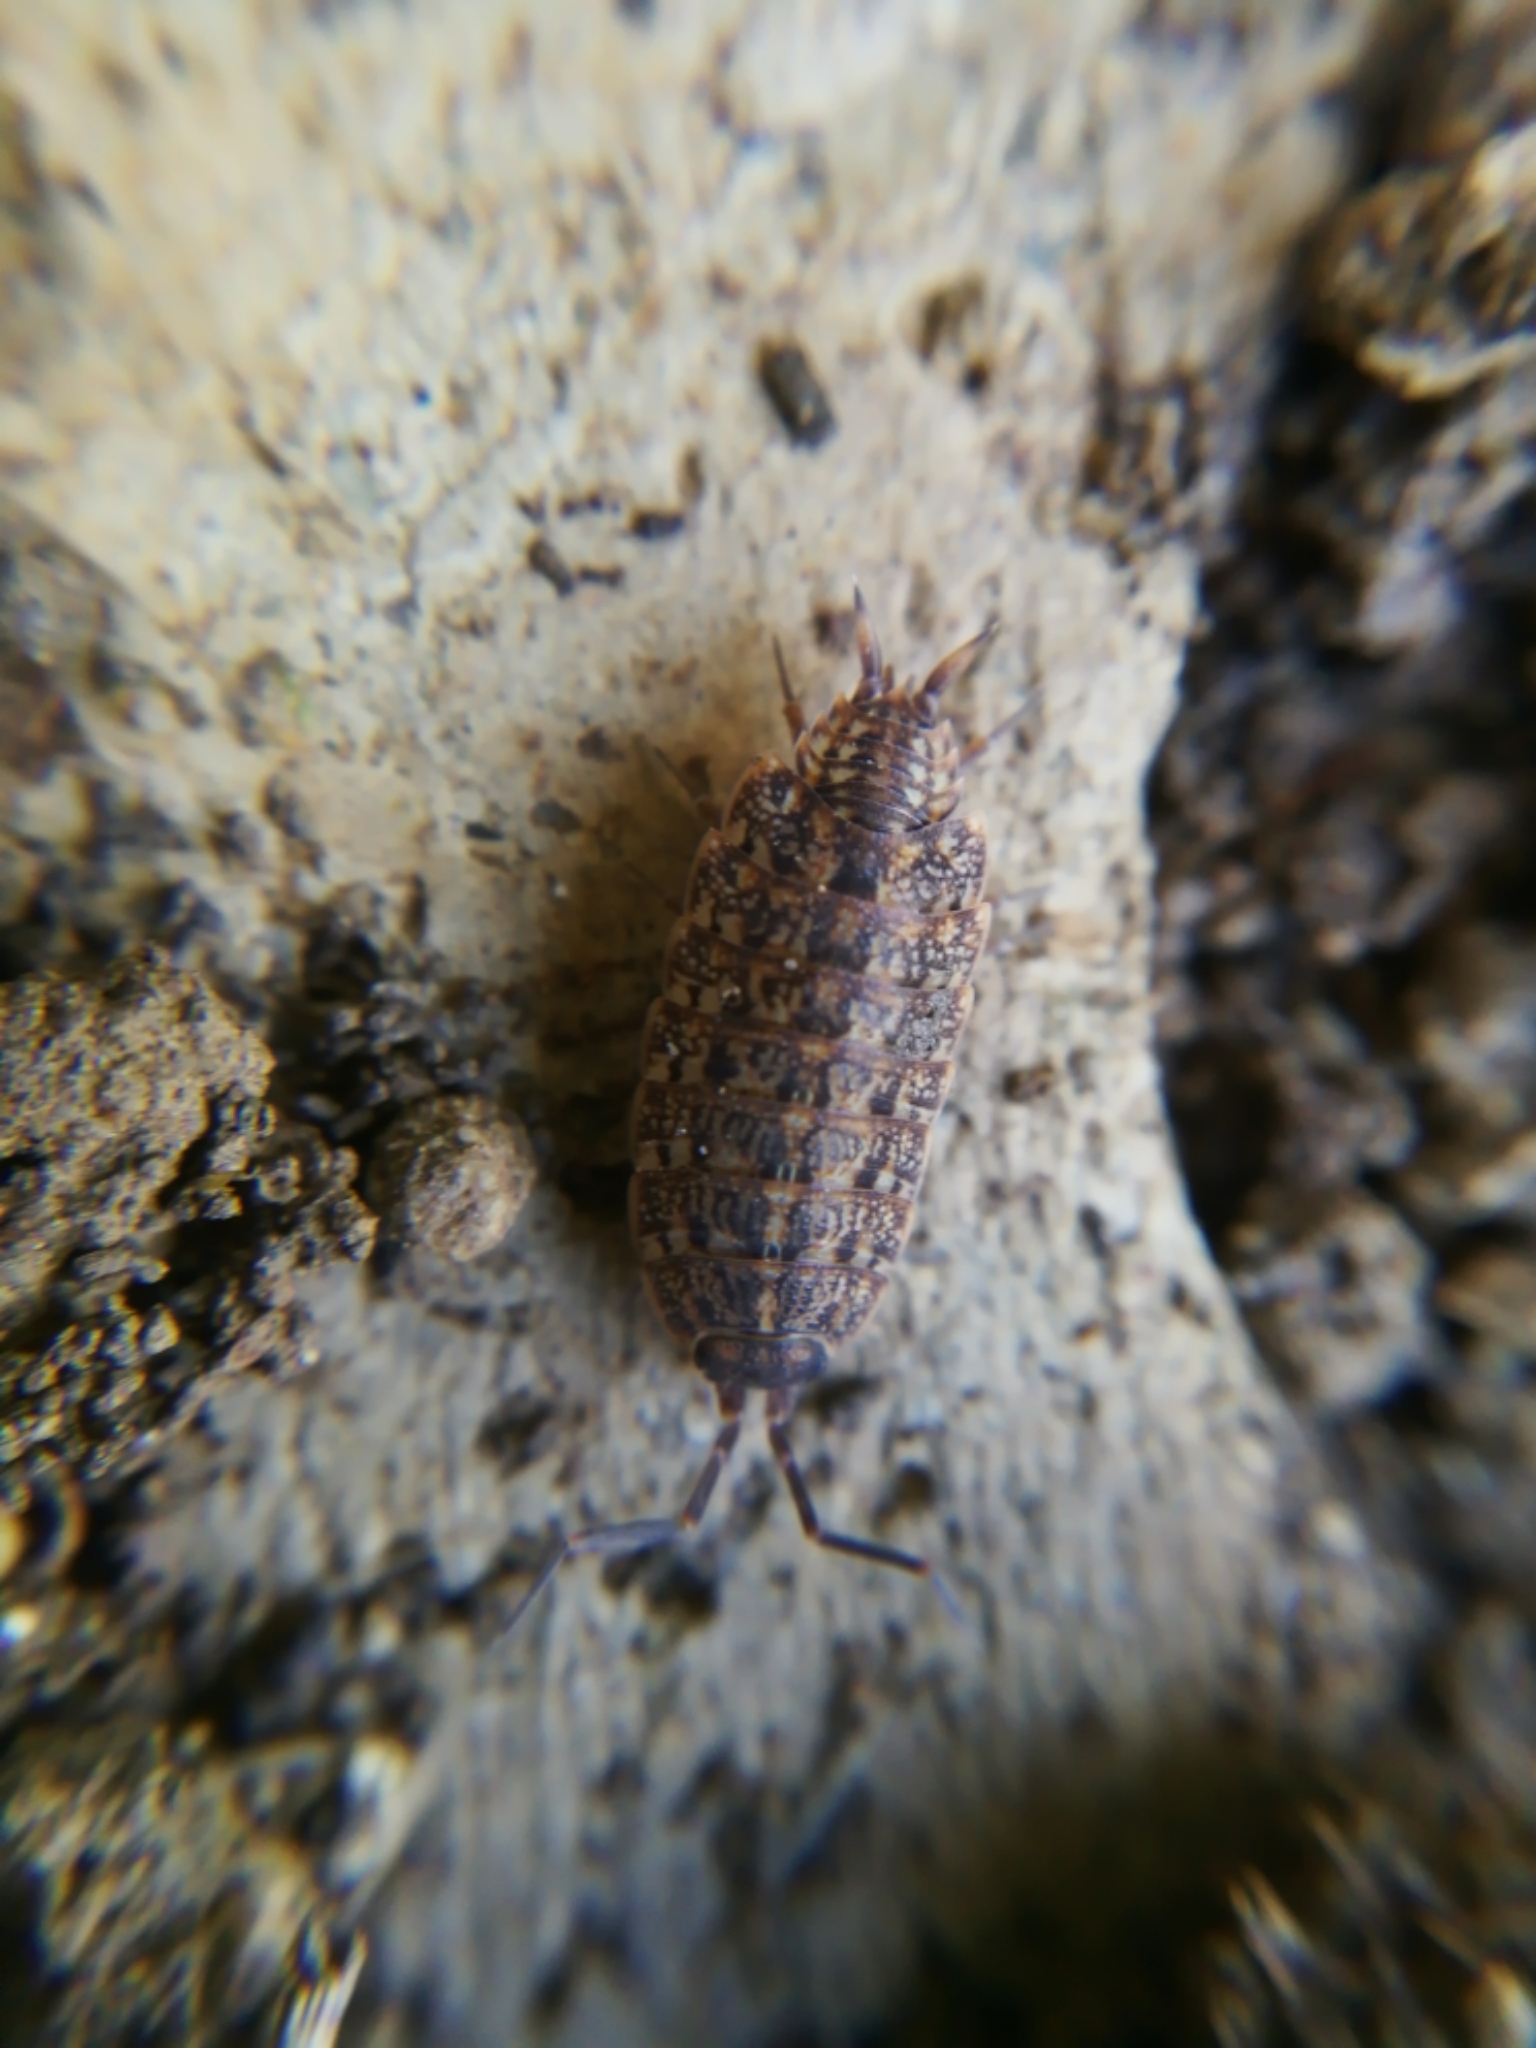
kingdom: Animalia
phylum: Arthropoda
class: Malacostraca
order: Isopoda
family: Agnaridae
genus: Orthometopon
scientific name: Orthometopon dalmatinum
